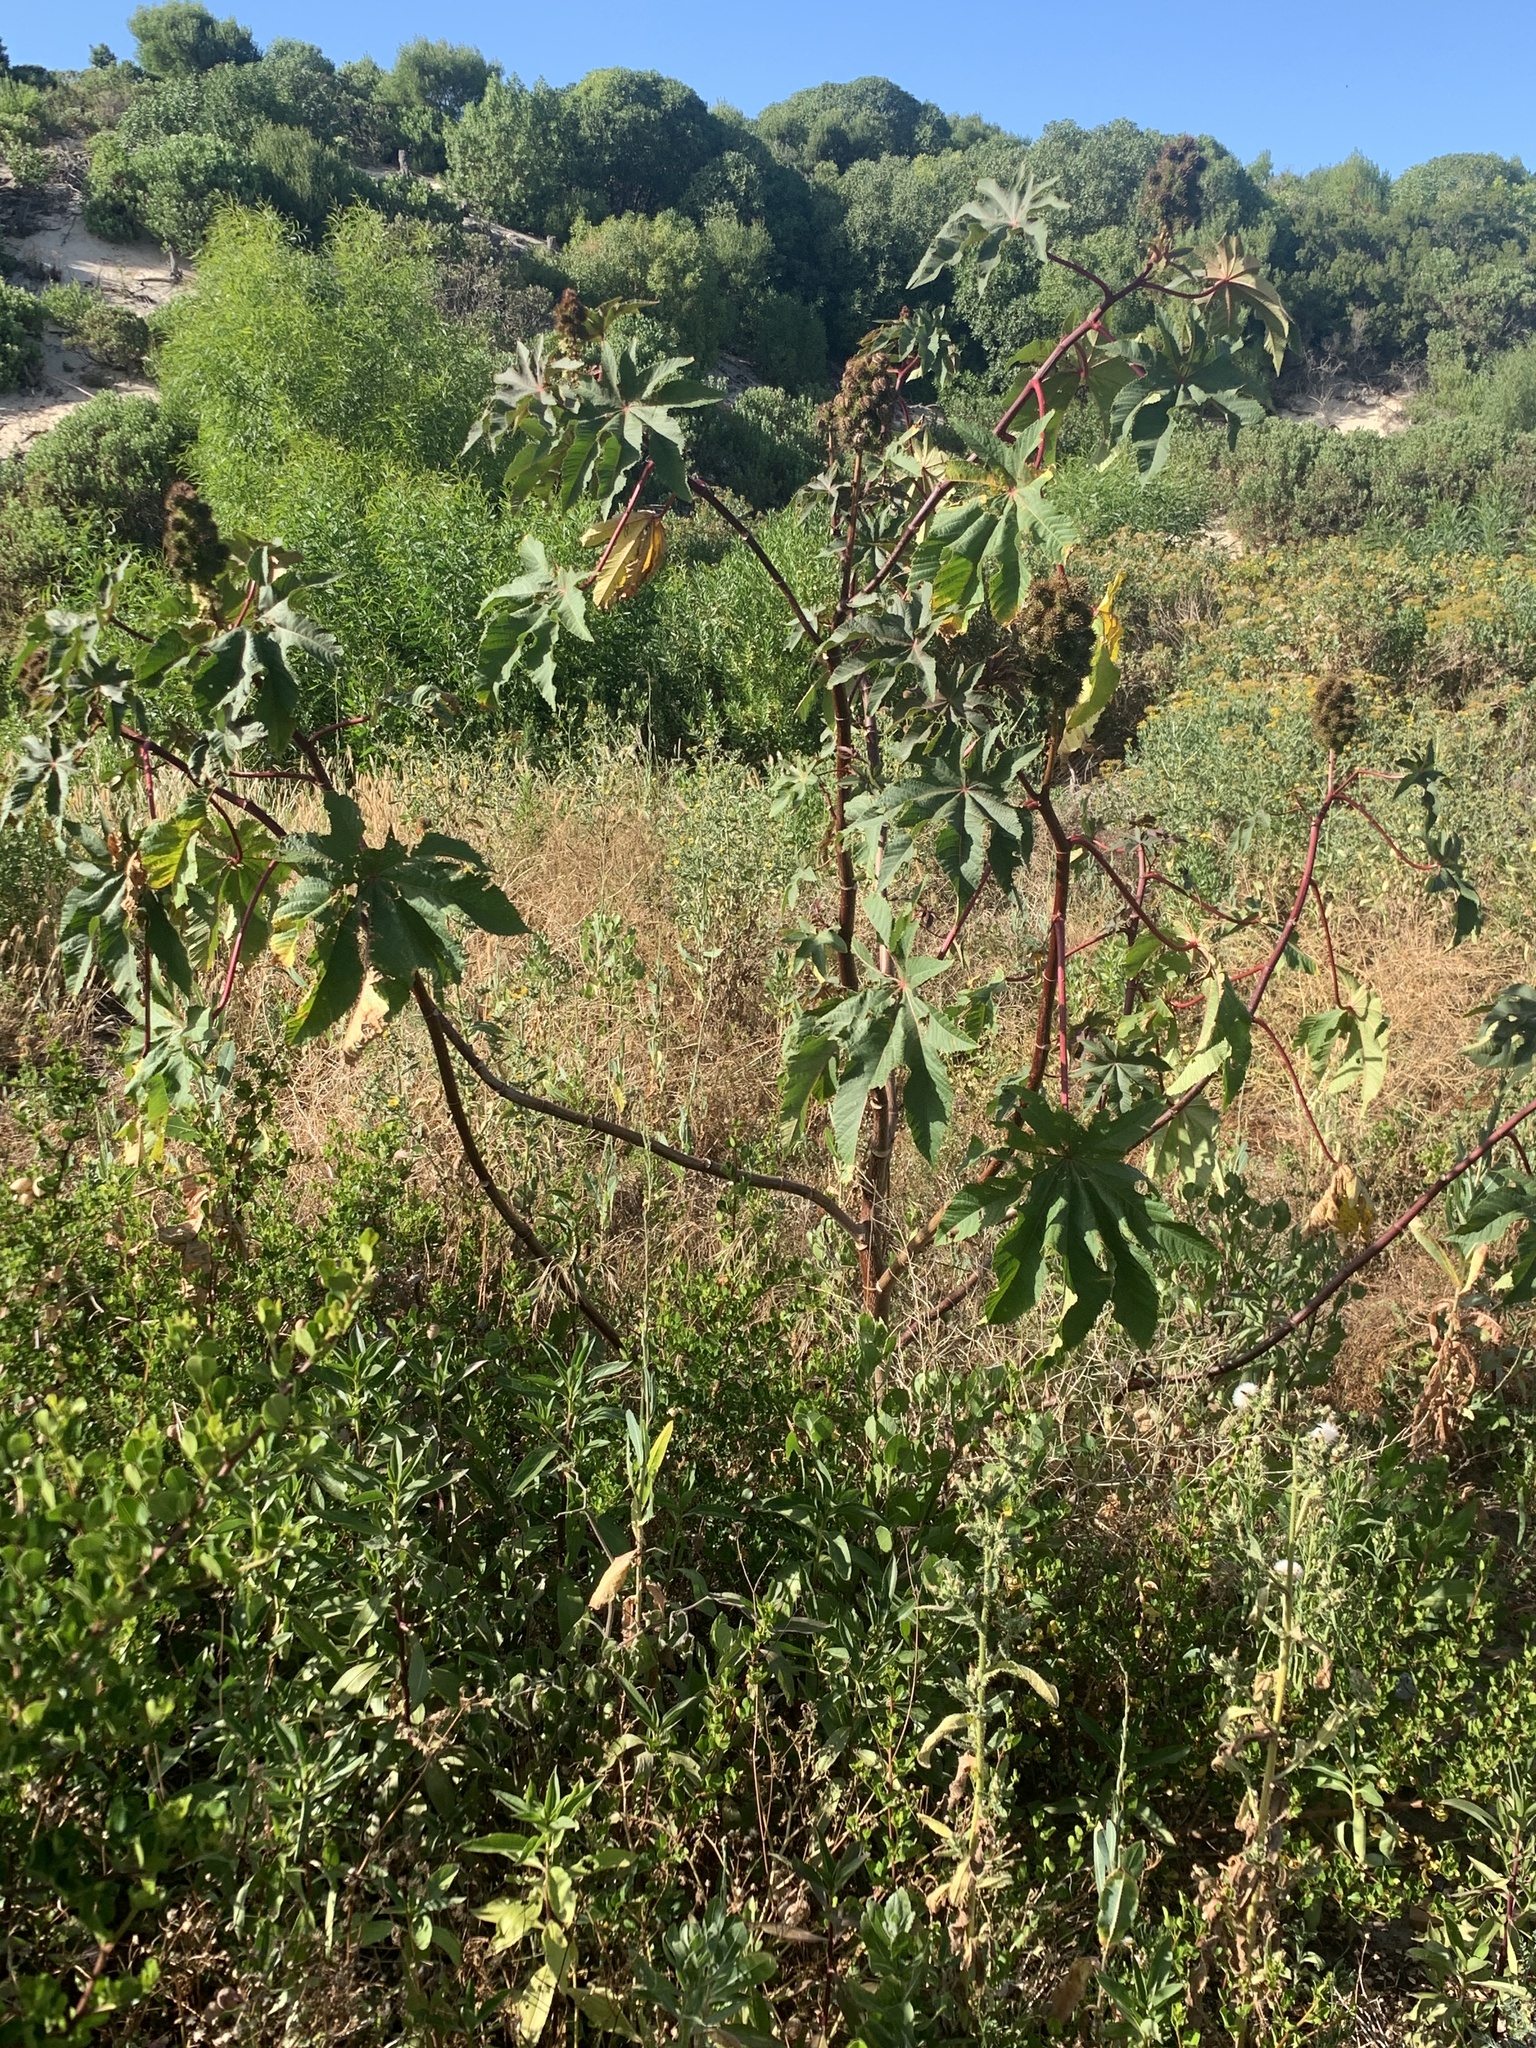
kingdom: Plantae
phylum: Tracheophyta
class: Magnoliopsida
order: Malpighiales
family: Euphorbiaceae
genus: Ricinus
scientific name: Ricinus communis
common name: Castor-oil-plant
